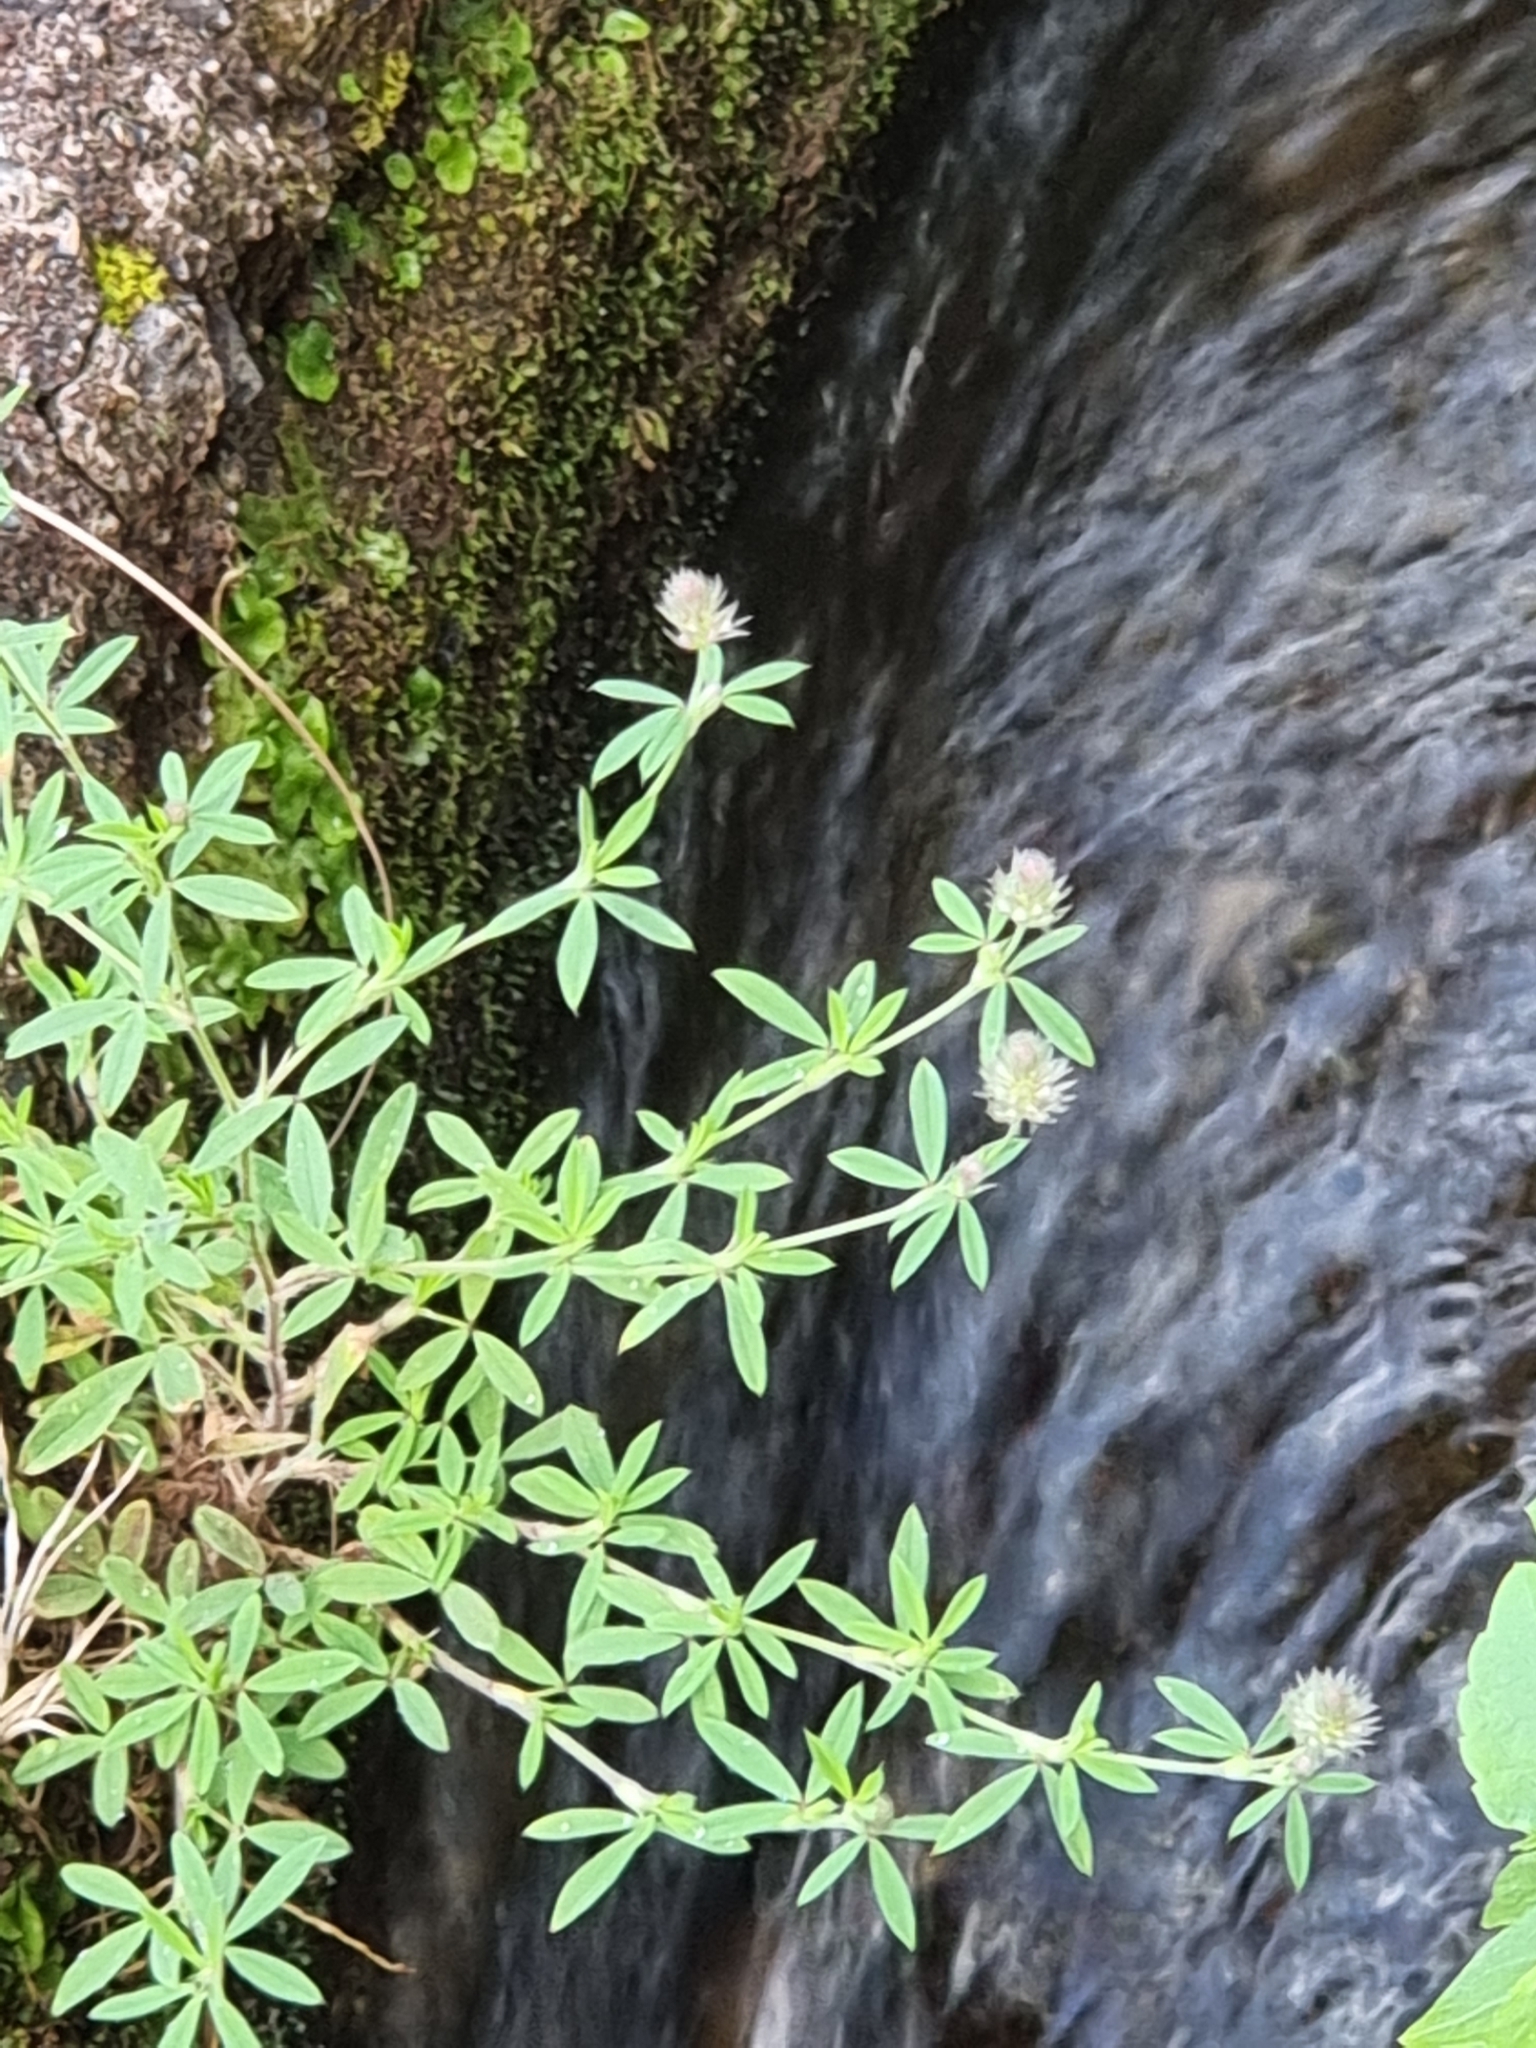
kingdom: Plantae
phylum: Tracheophyta
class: Magnoliopsida
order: Fabales
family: Fabaceae
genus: Trifolium
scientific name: Trifolium arvense
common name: Hare's-foot clover
